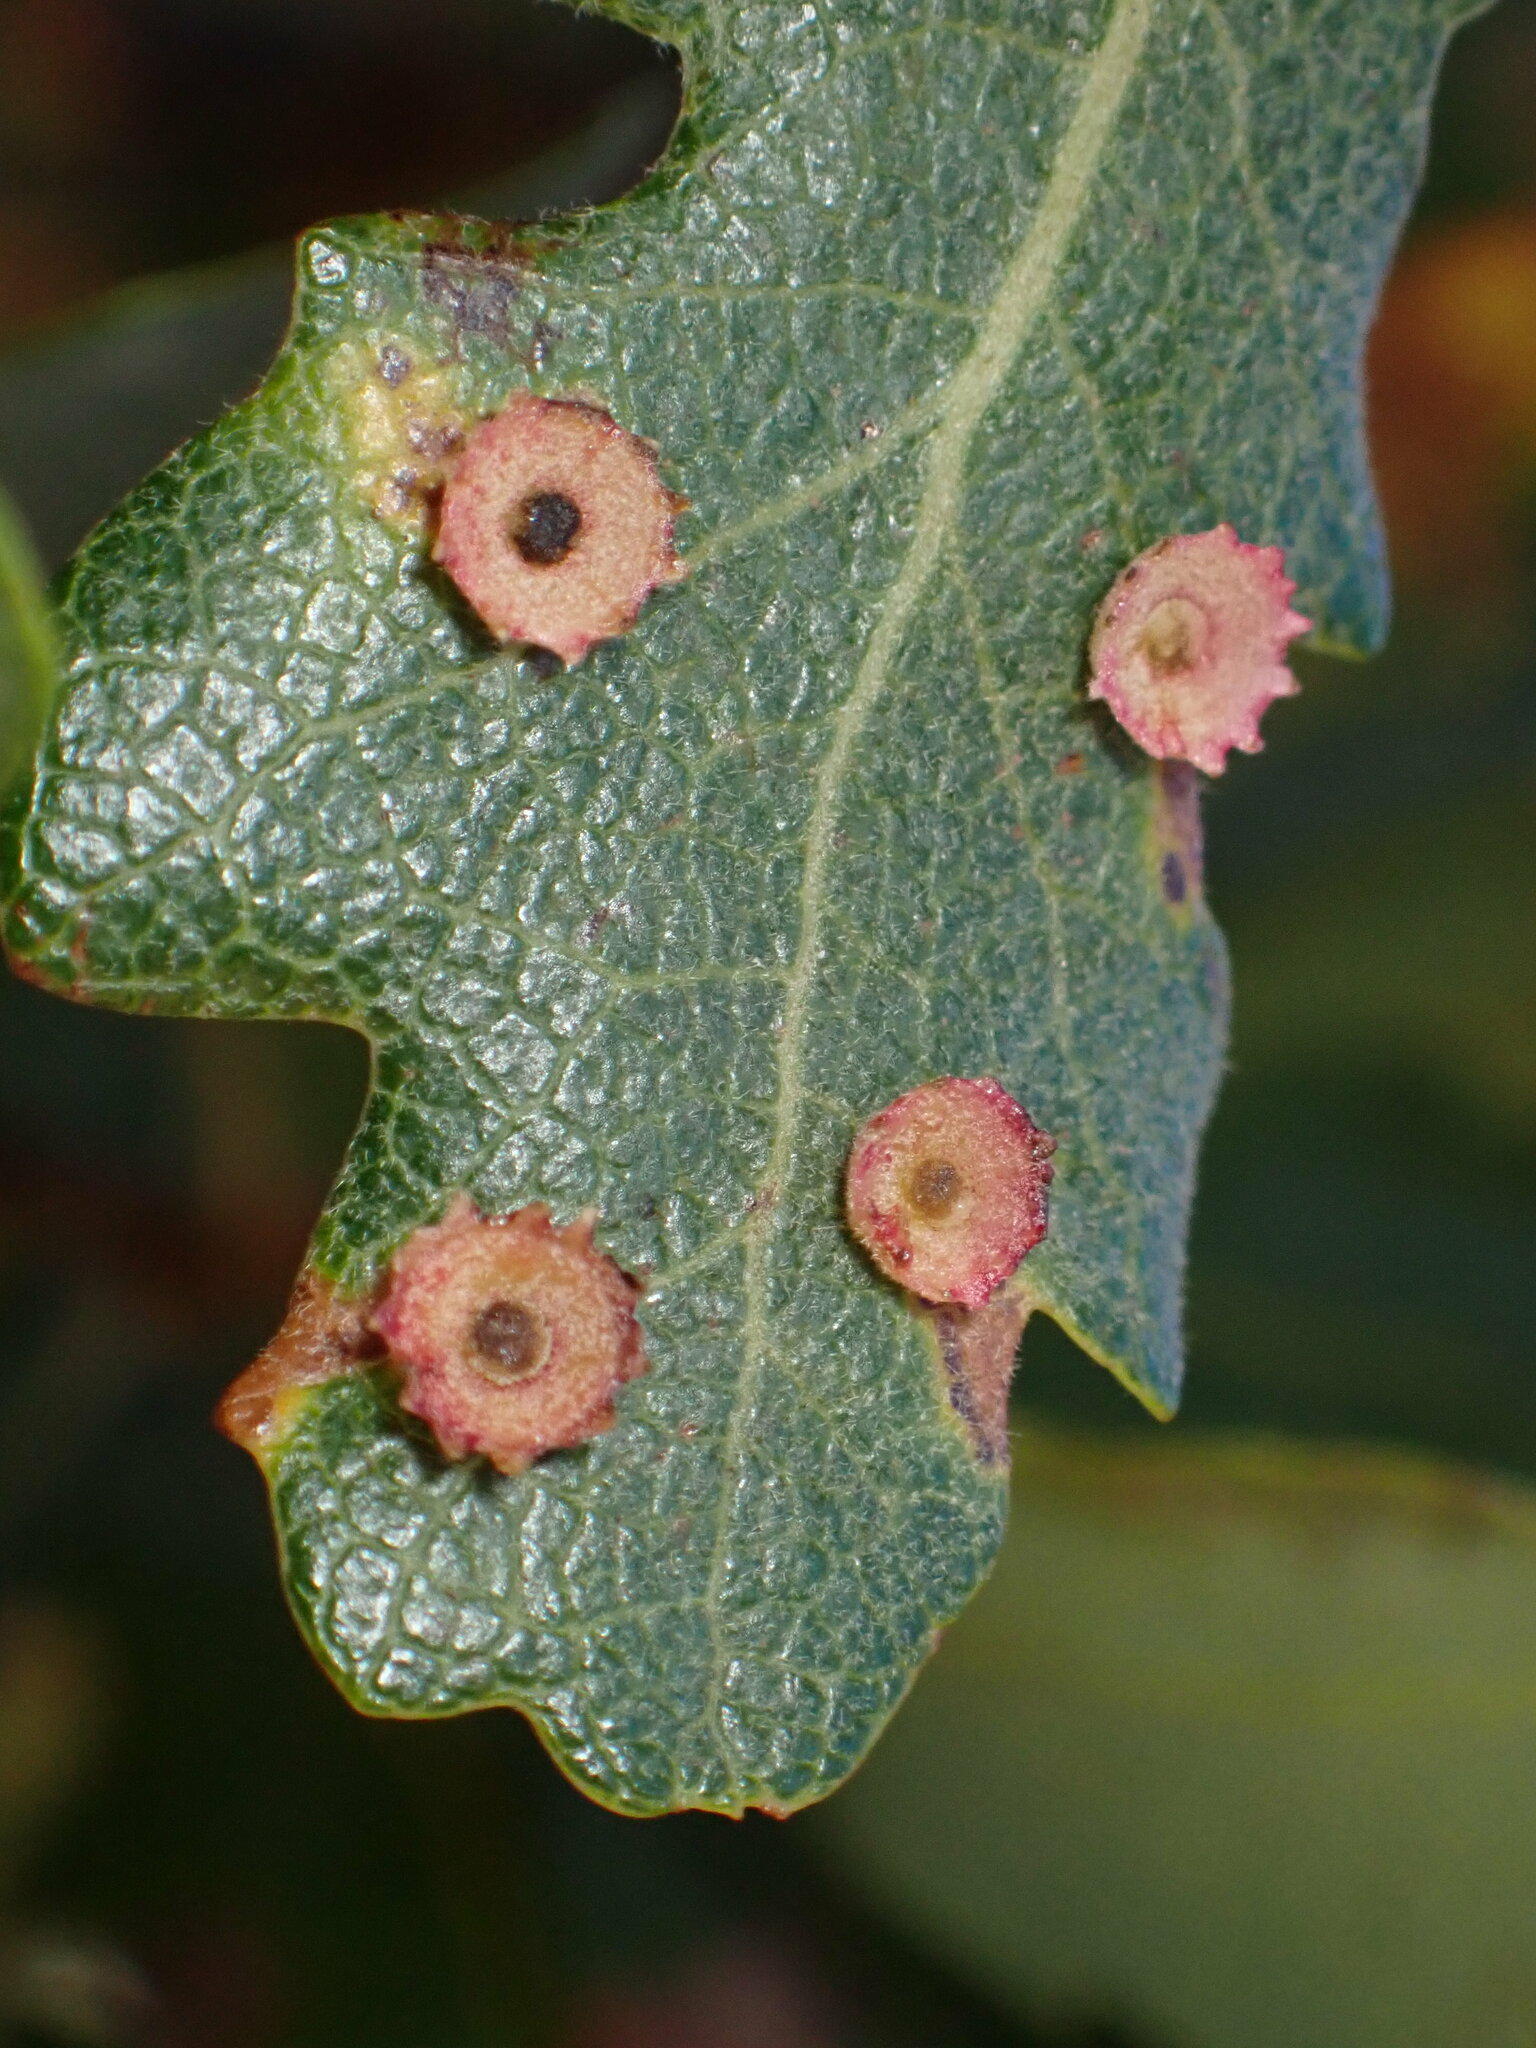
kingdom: Animalia
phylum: Arthropoda
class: Insecta
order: Hymenoptera
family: Cynipidae
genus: Andricus
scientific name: Andricus
